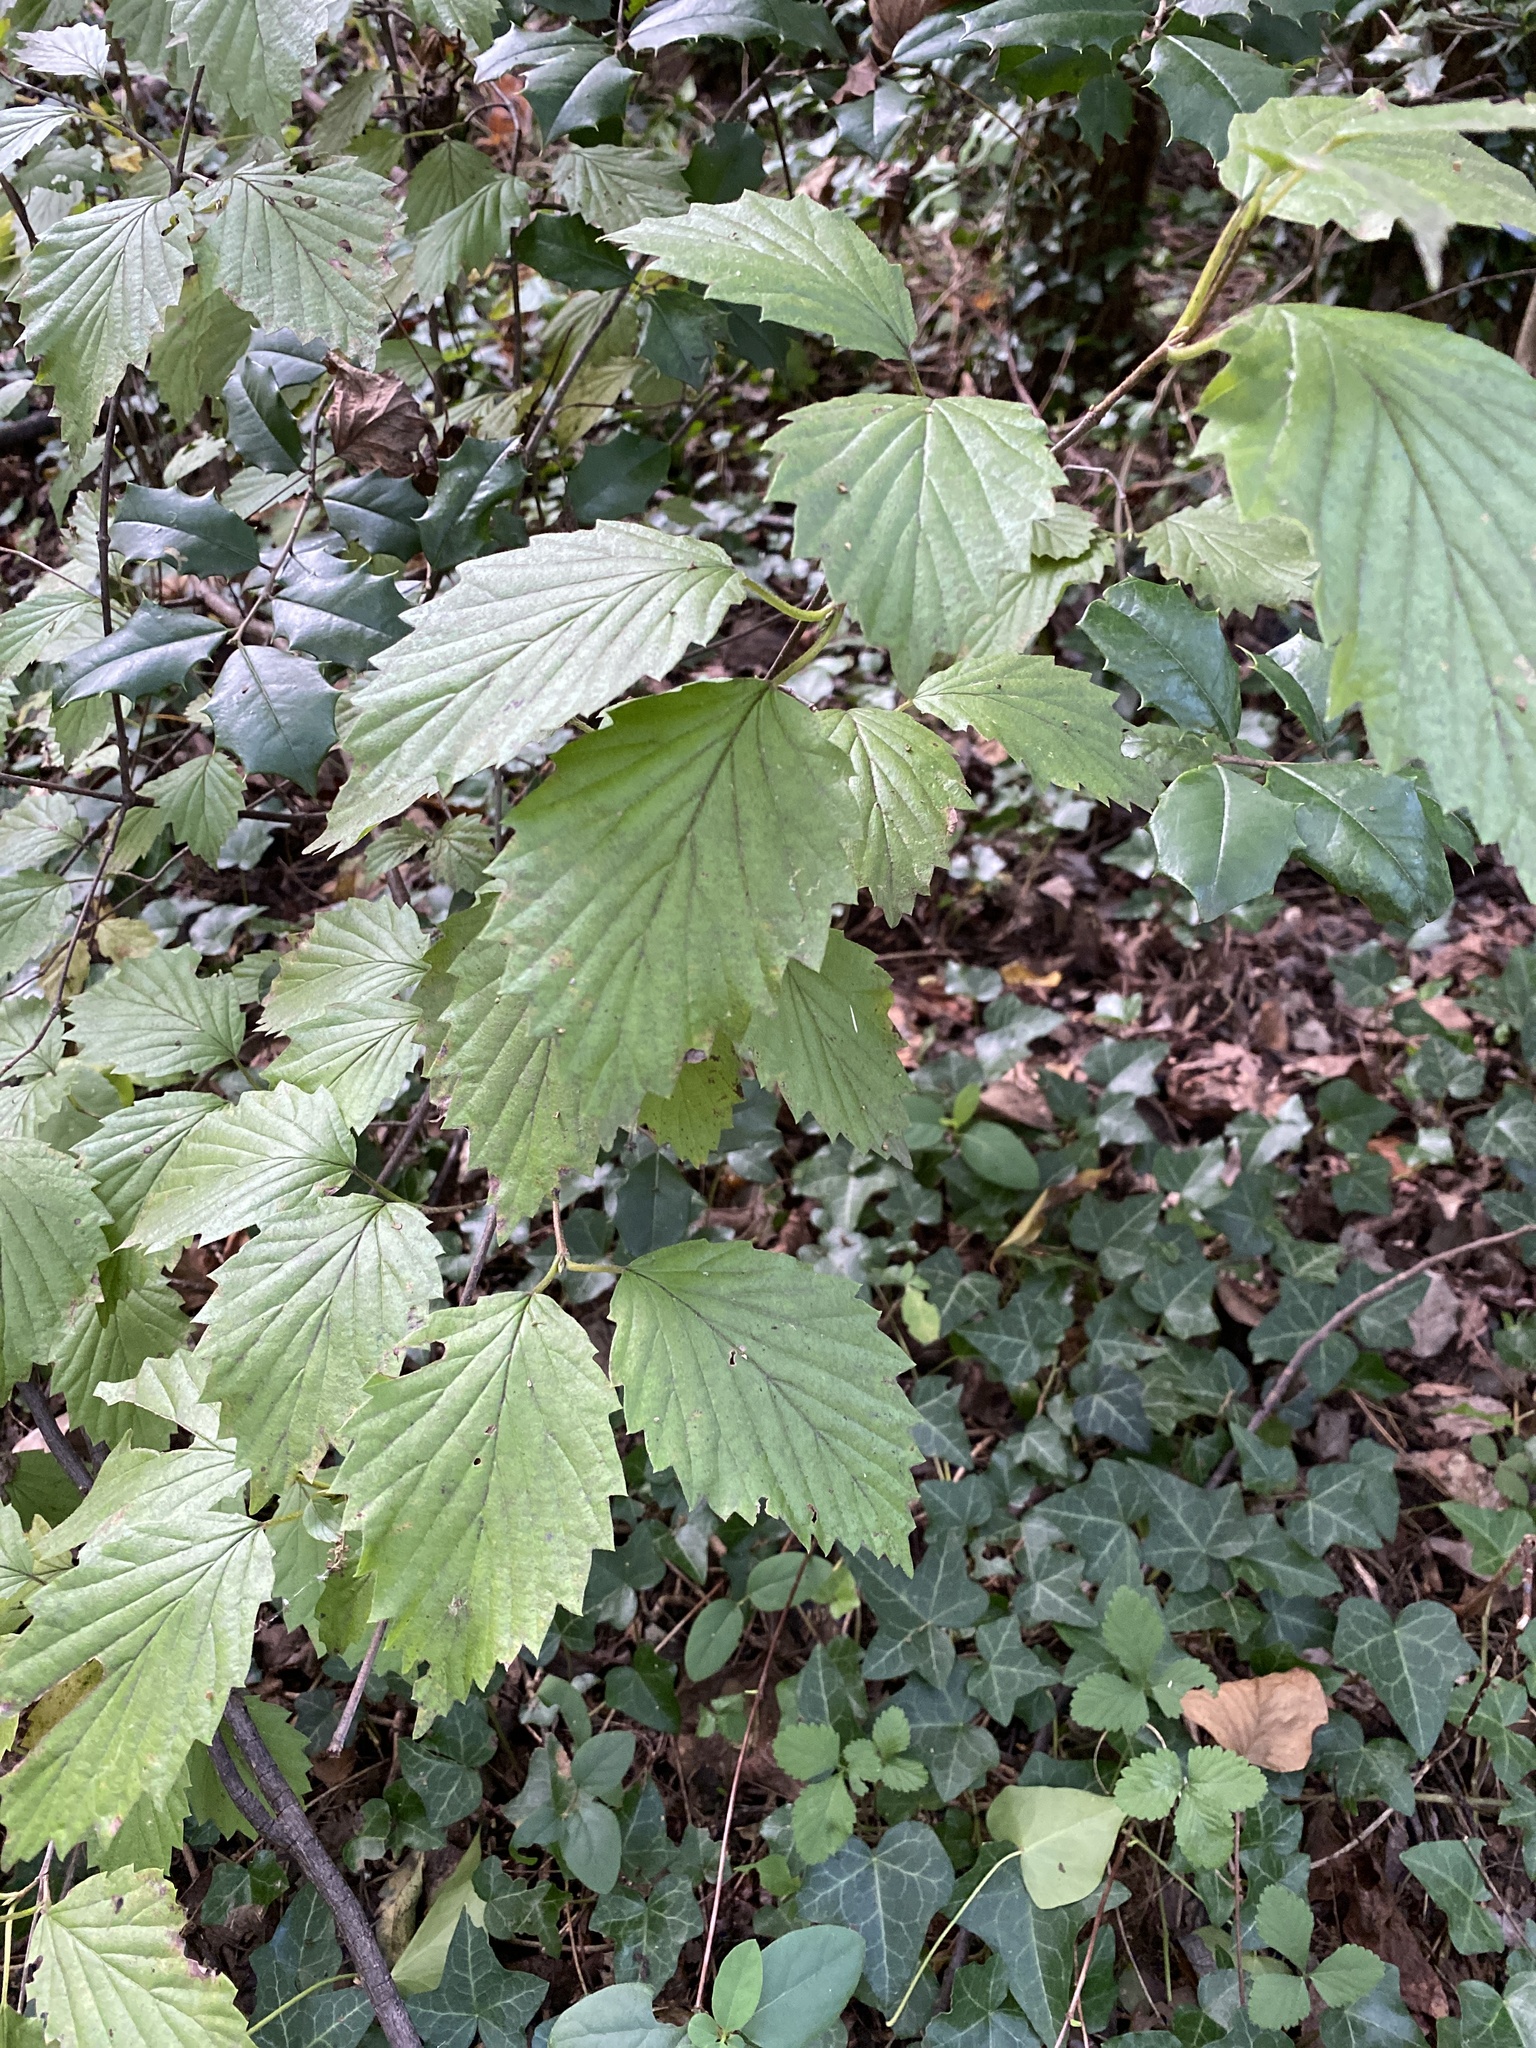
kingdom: Plantae
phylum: Tracheophyta
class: Magnoliopsida
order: Dipsacales
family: Viburnaceae
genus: Viburnum
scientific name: Viburnum dentatum
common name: Arrow-wood
